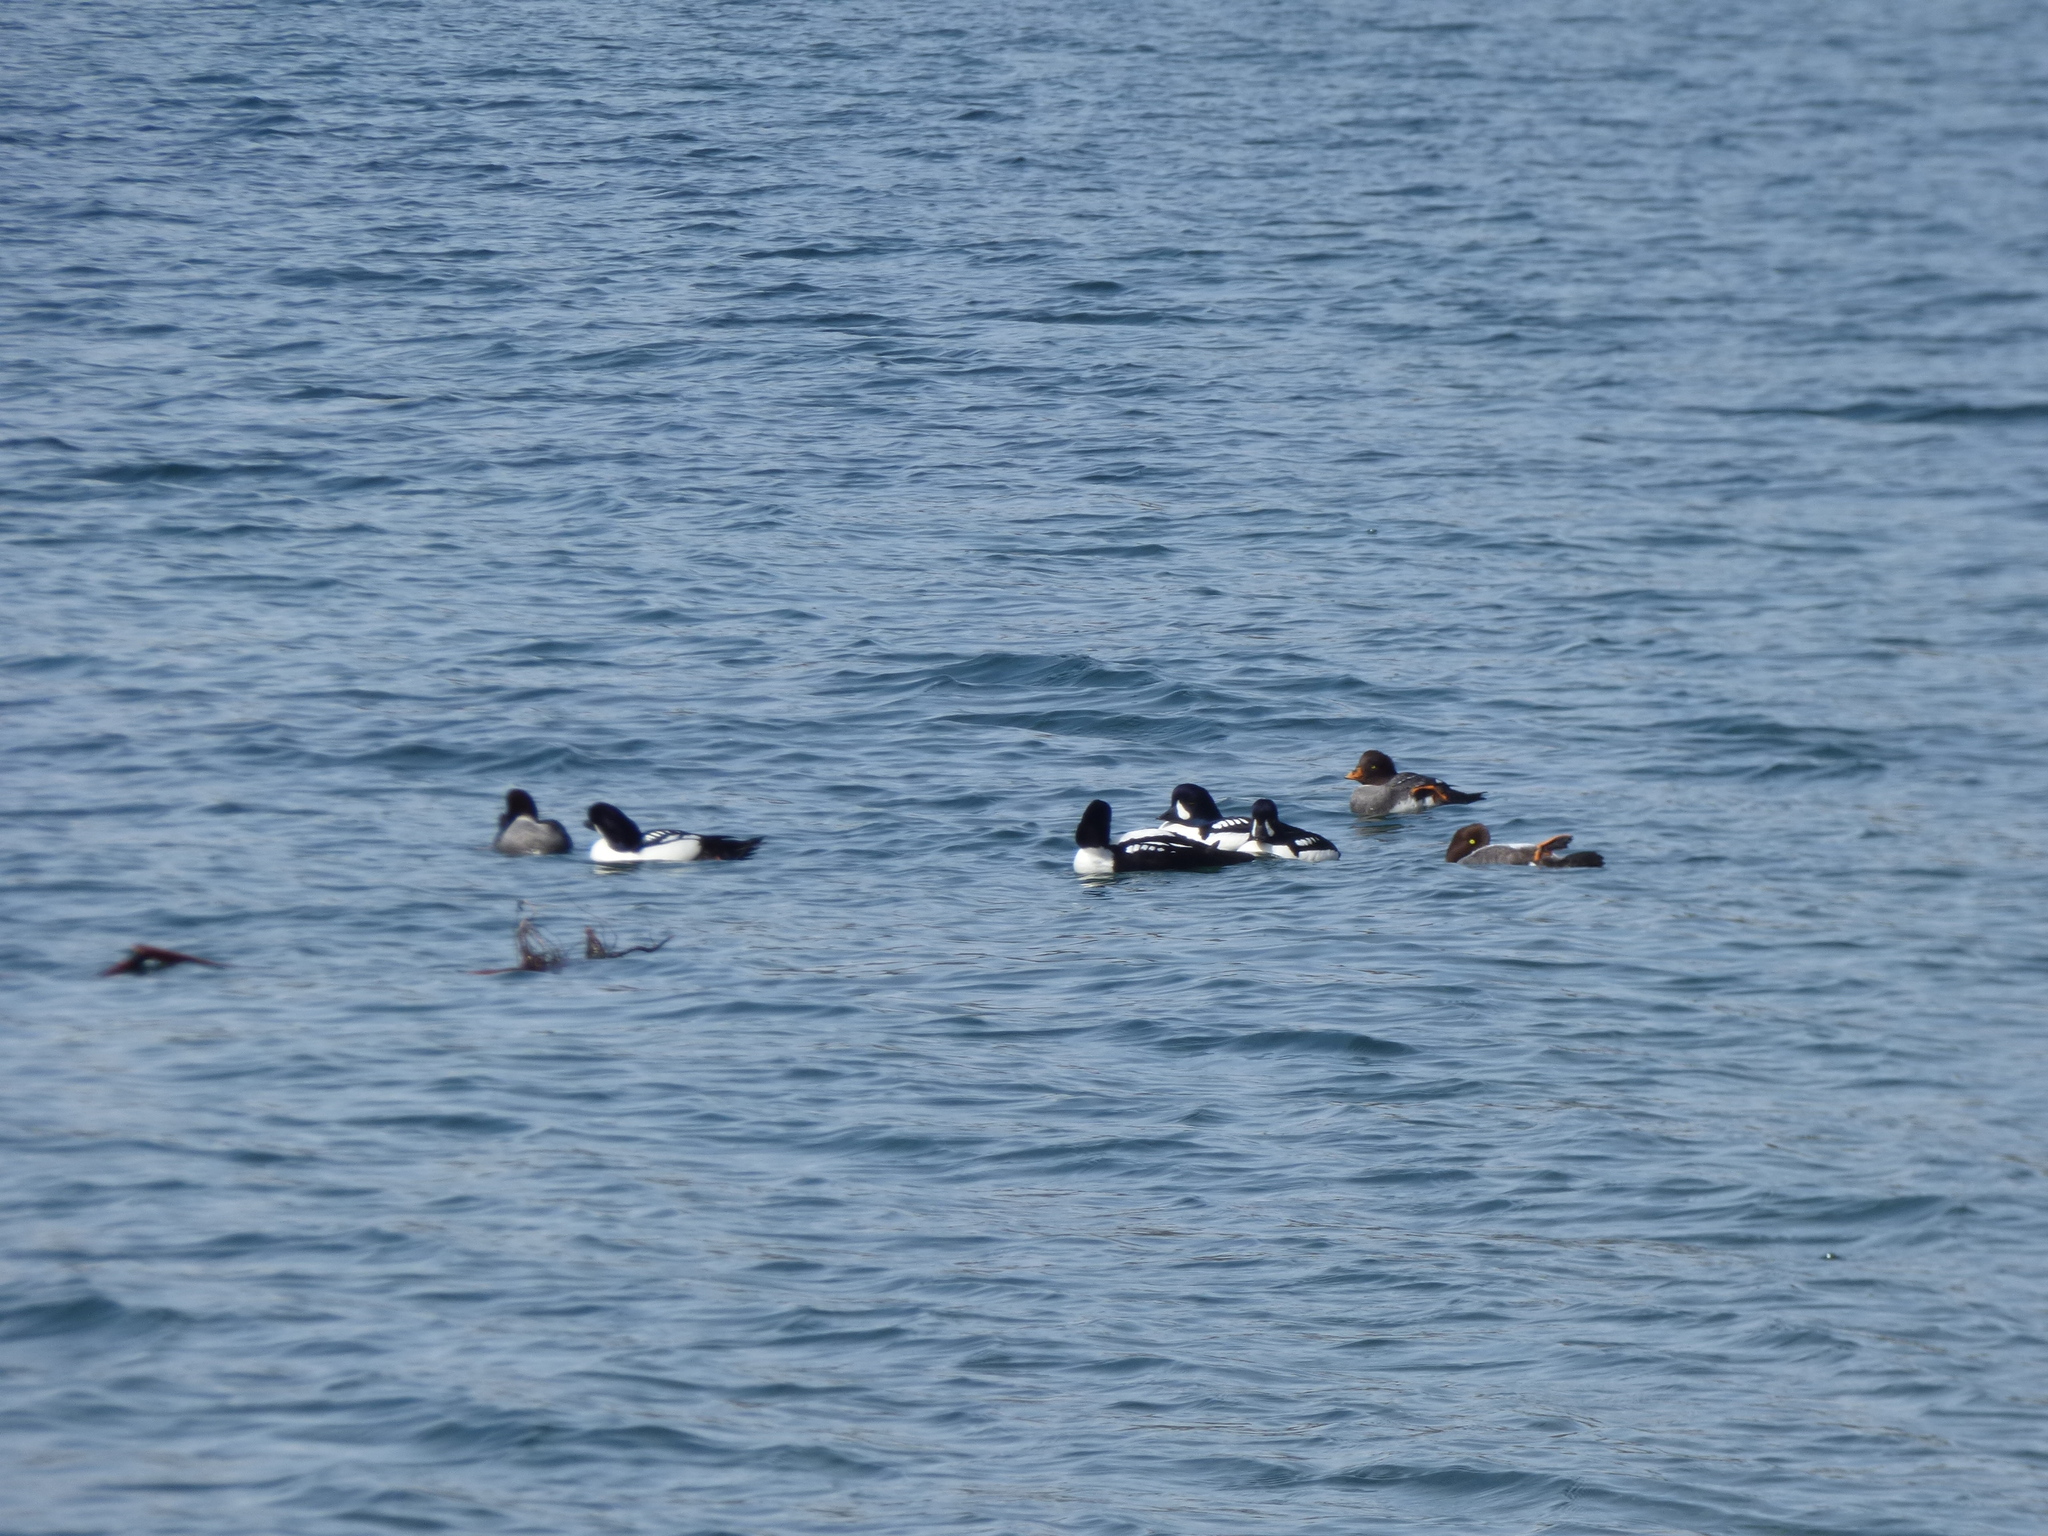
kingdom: Animalia
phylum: Chordata
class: Aves
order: Anseriformes
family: Anatidae
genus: Bucephala
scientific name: Bucephala islandica
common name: Barrow's goldeneye
